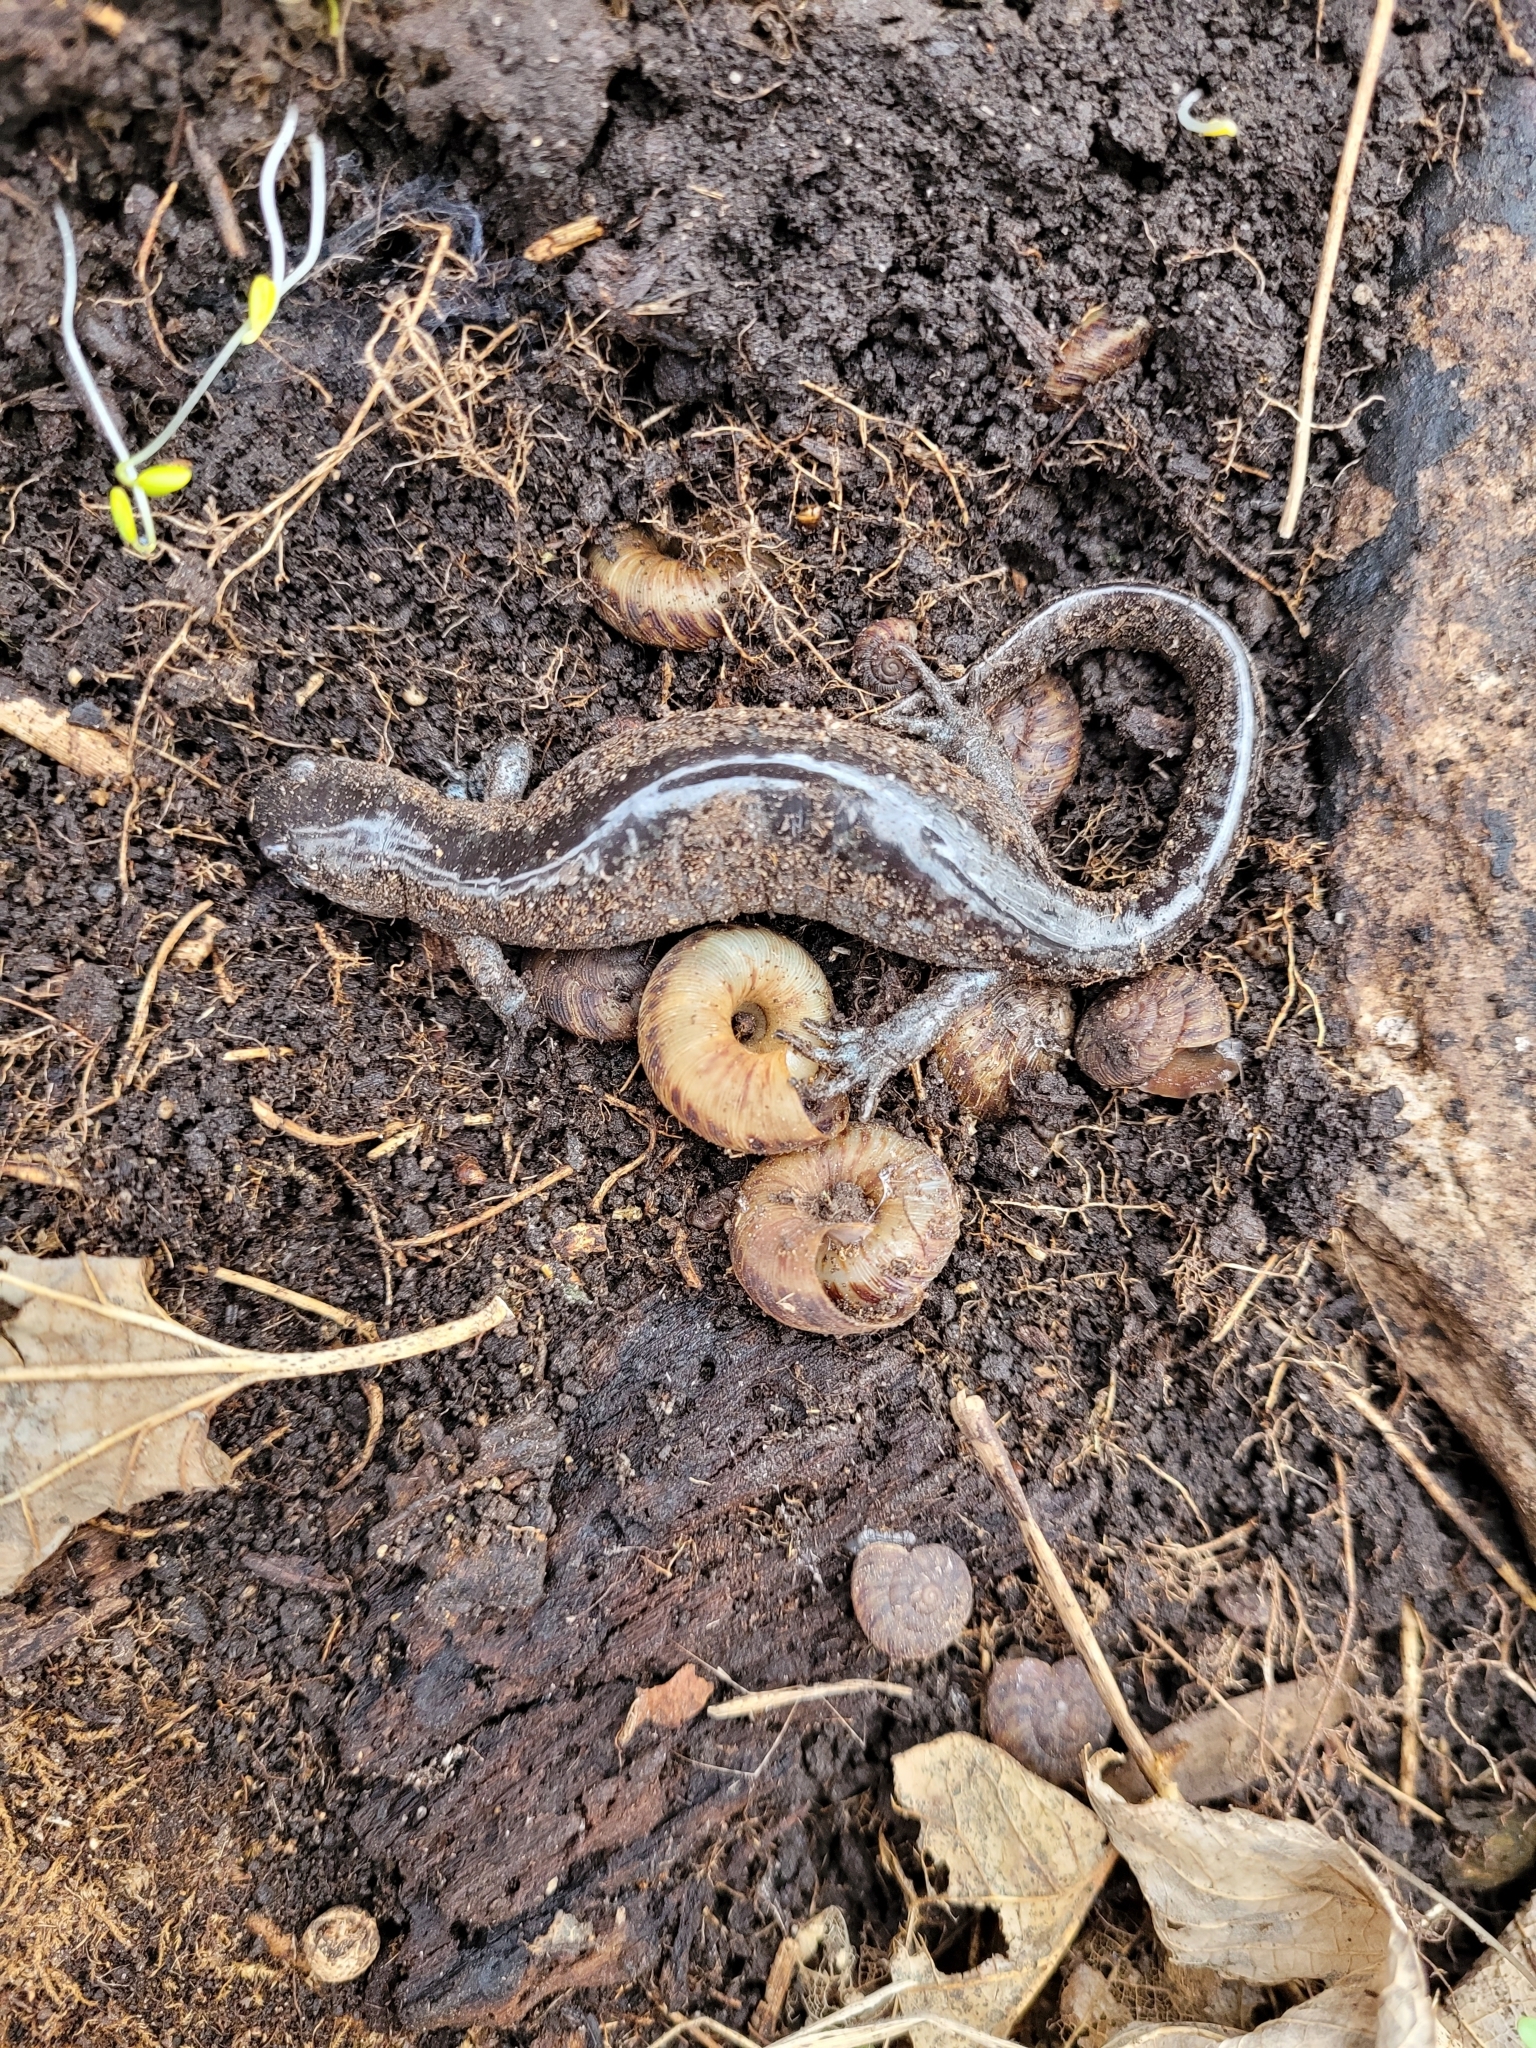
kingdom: Animalia
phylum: Chordata
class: Amphibia
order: Caudata
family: Ambystomatidae
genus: Ambystoma
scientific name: Ambystoma unisexual
